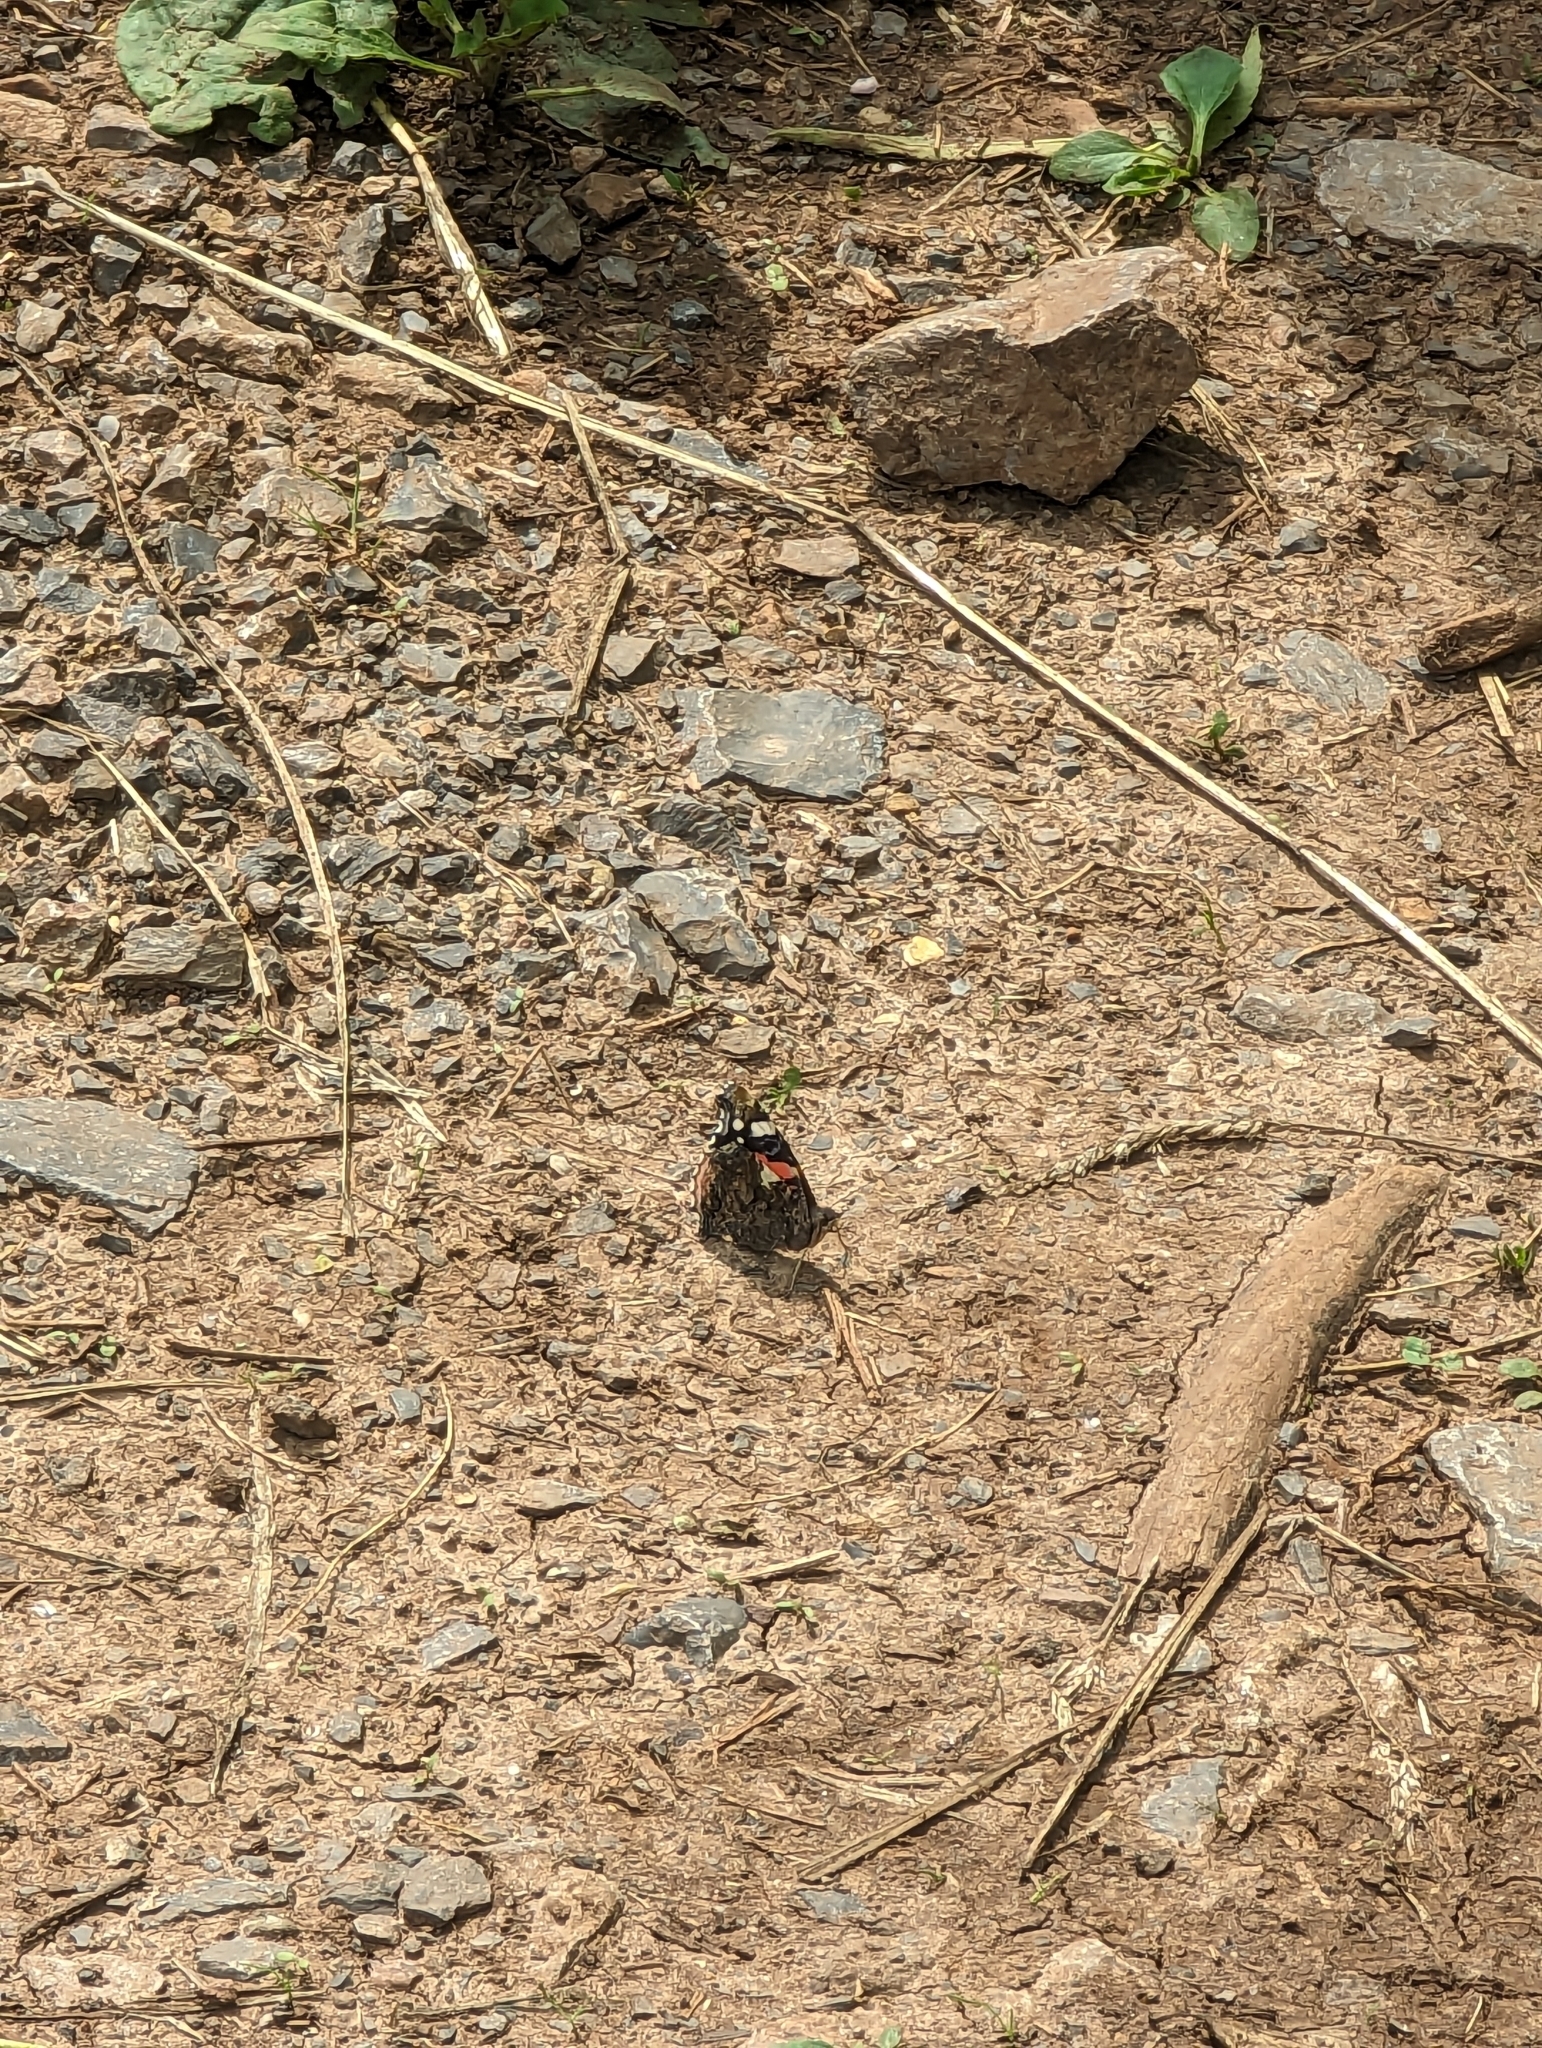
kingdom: Animalia
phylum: Arthropoda
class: Insecta
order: Lepidoptera
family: Nymphalidae
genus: Vanessa
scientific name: Vanessa atalanta
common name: Red admiral
